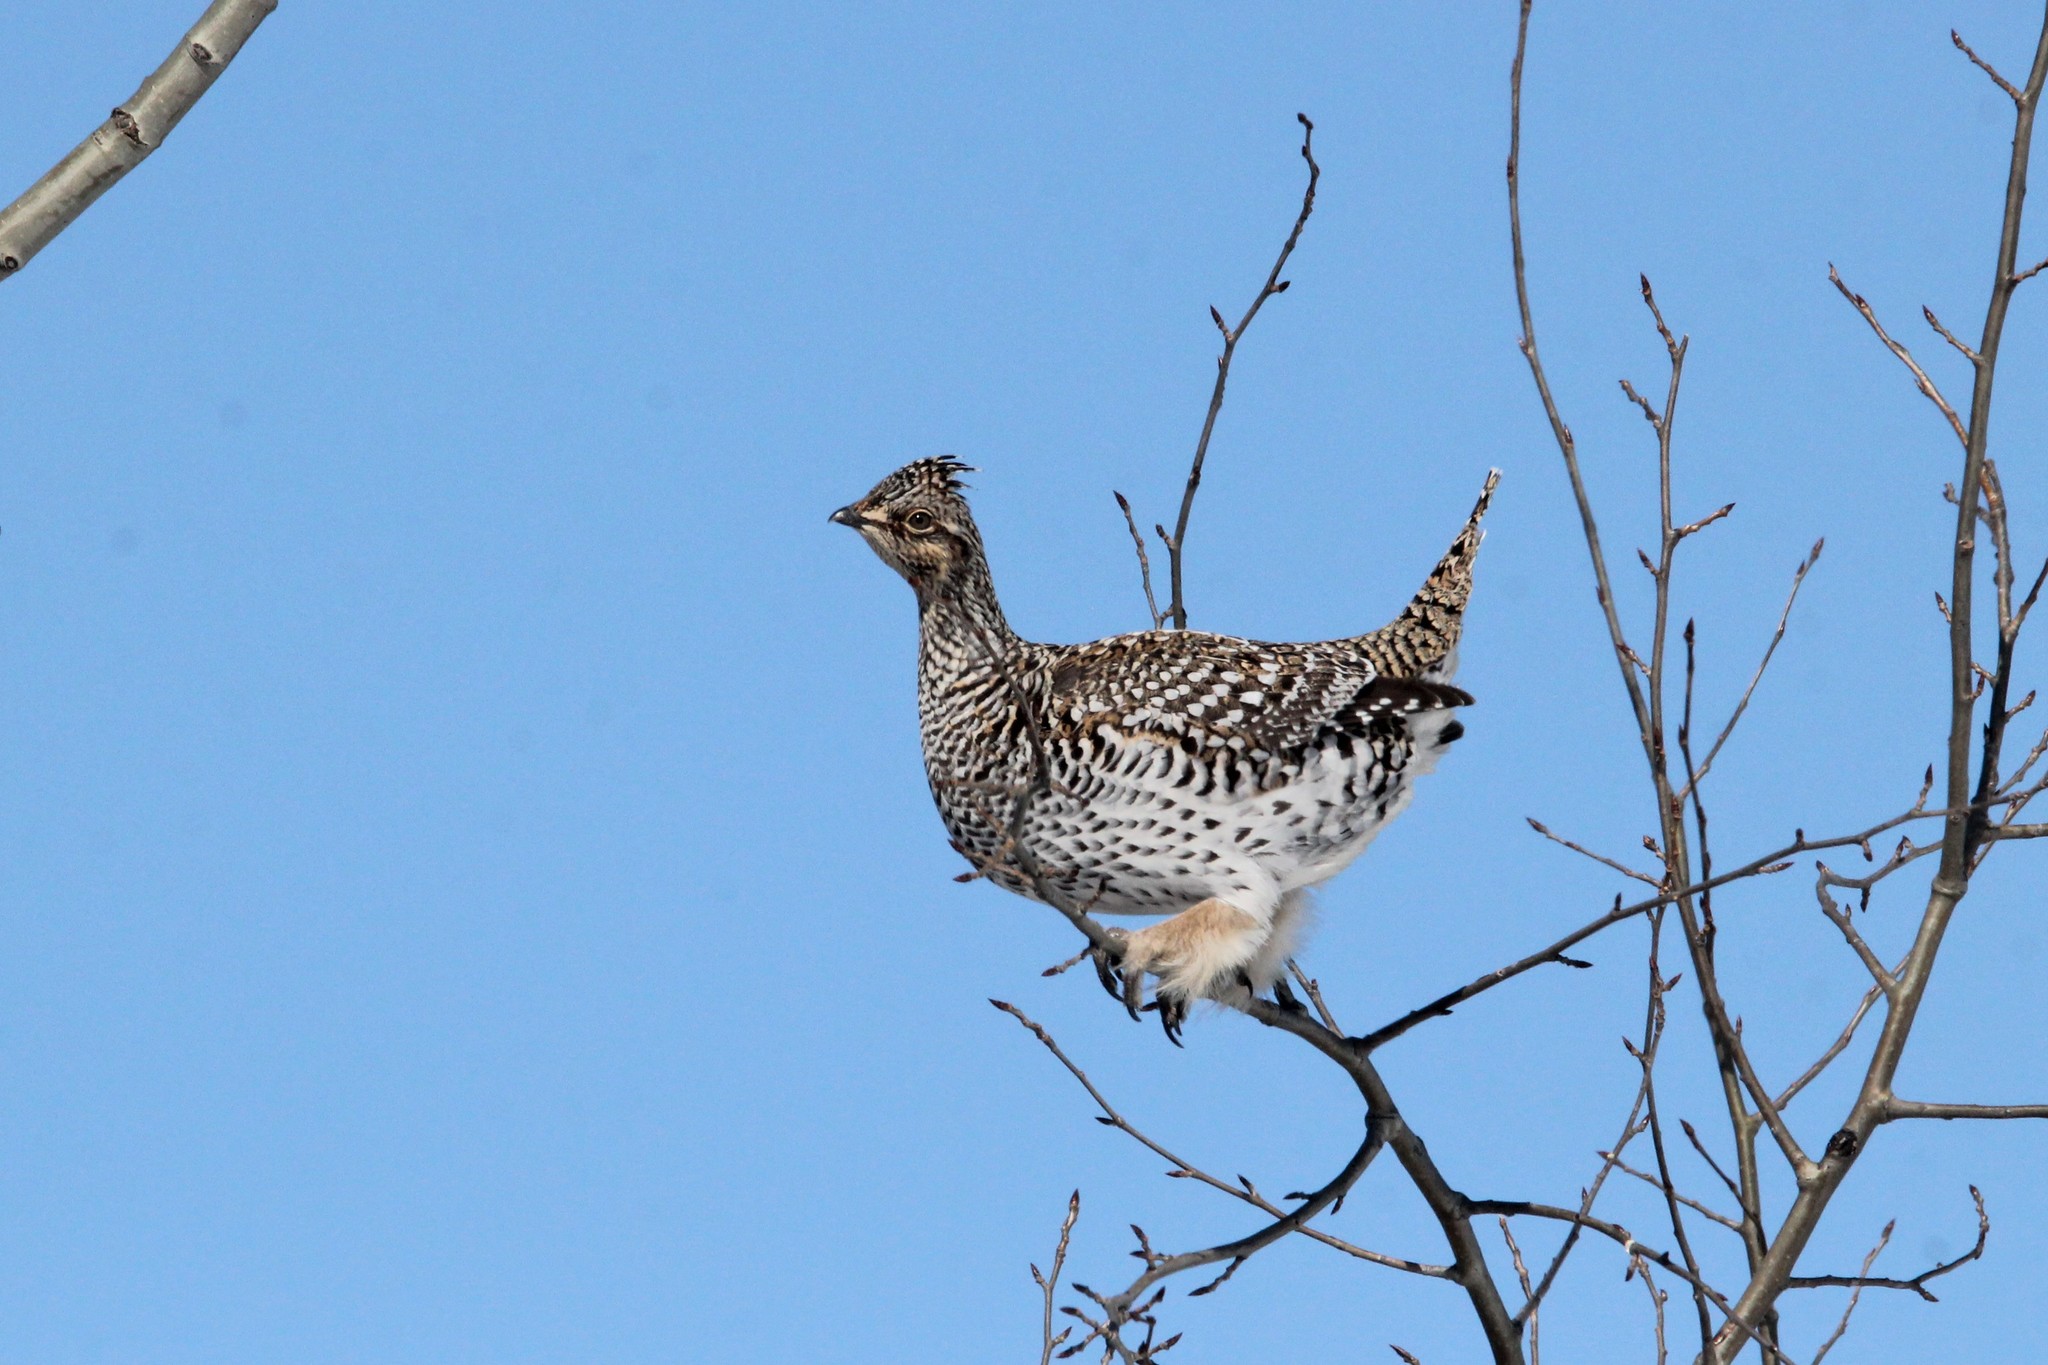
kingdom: Animalia
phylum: Chordata
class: Aves
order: Galliformes
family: Phasianidae
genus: Tympanuchus
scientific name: Tympanuchus phasianellus
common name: Sharp-tailed grouse
